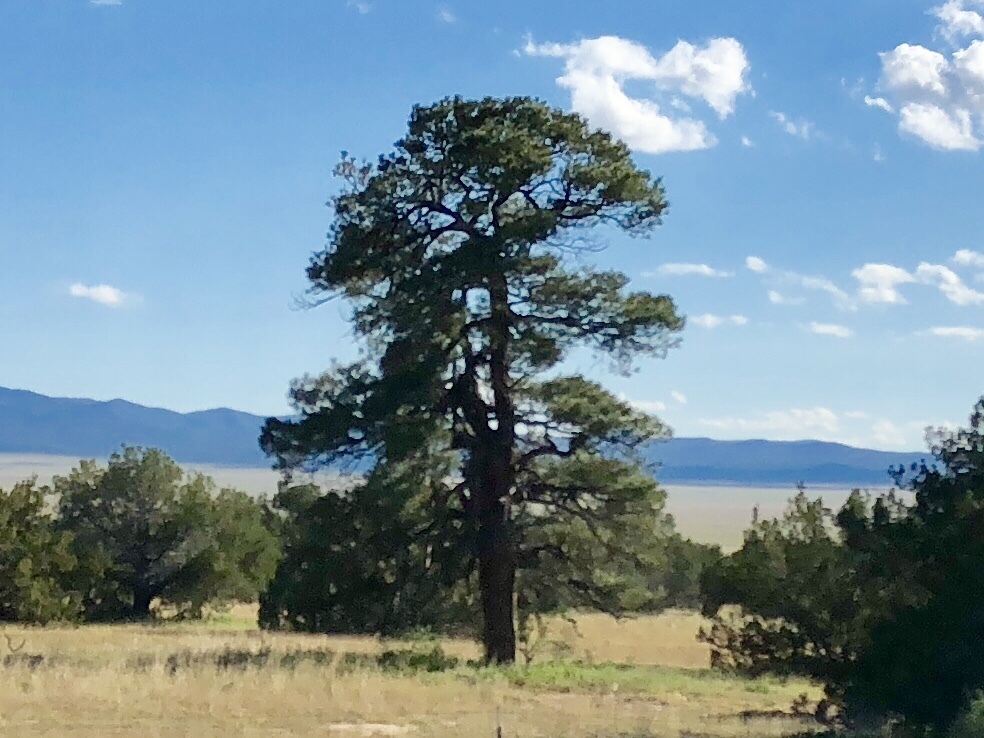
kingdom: Plantae
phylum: Tracheophyta
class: Pinopsida
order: Pinales
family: Pinaceae
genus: Pinus
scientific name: Pinus ponderosa
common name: Western yellow-pine
